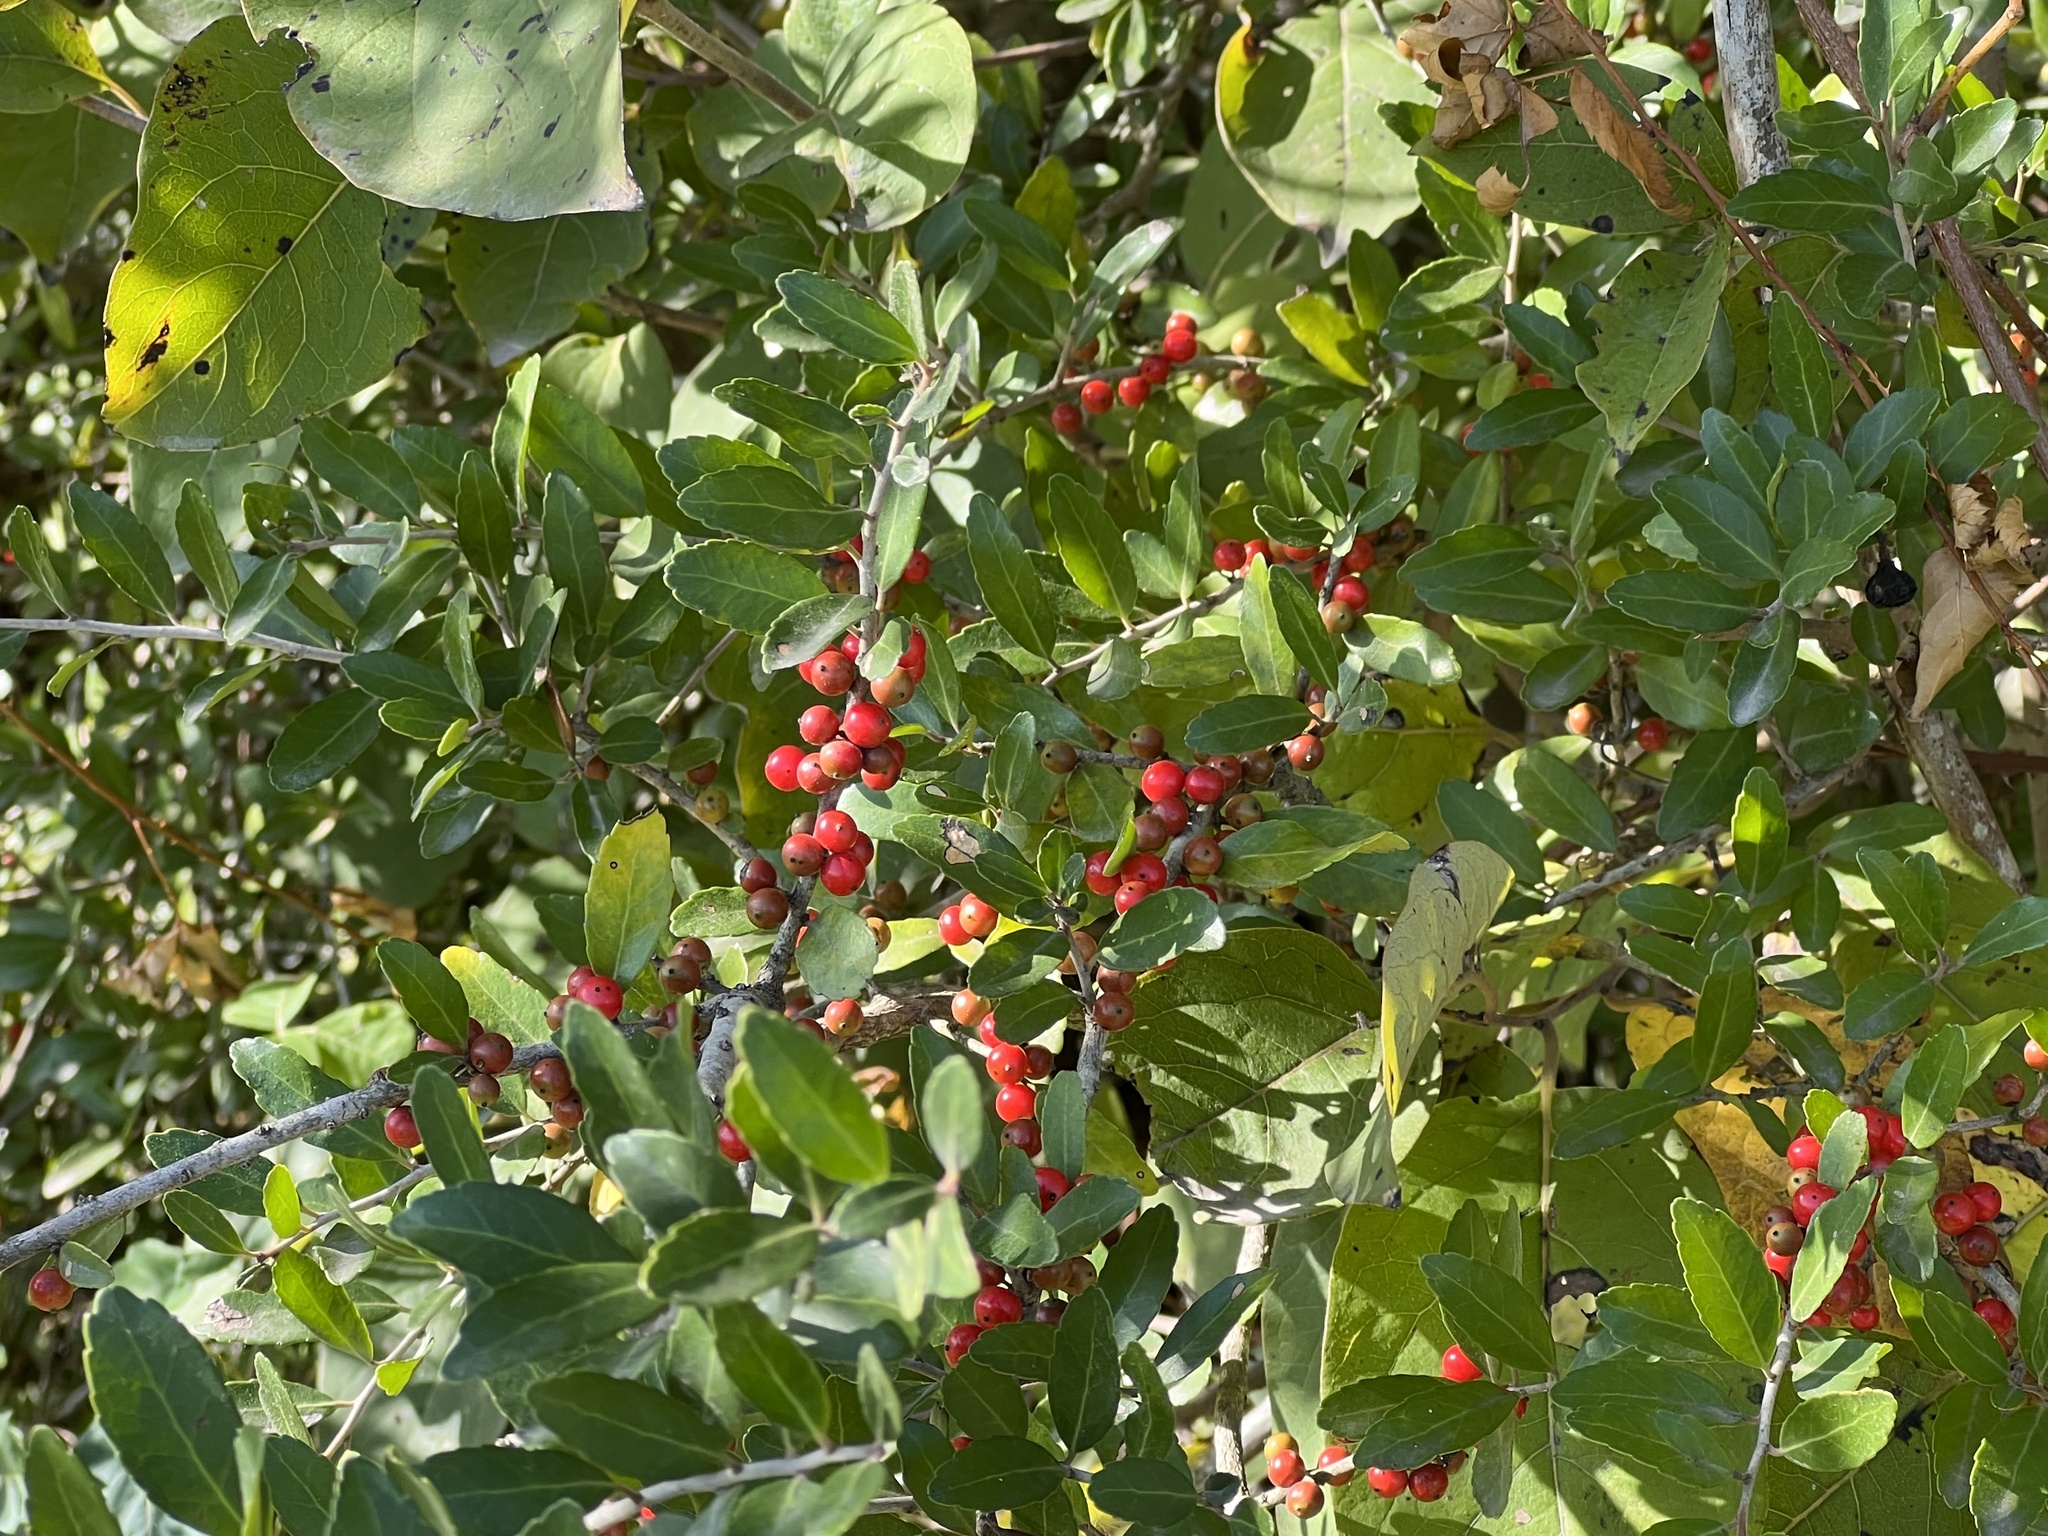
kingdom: Plantae
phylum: Tracheophyta
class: Magnoliopsida
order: Aquifoliales
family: Aquifoliaceae
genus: Ilex
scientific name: Ilex vomitoria
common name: Yaupon holly
